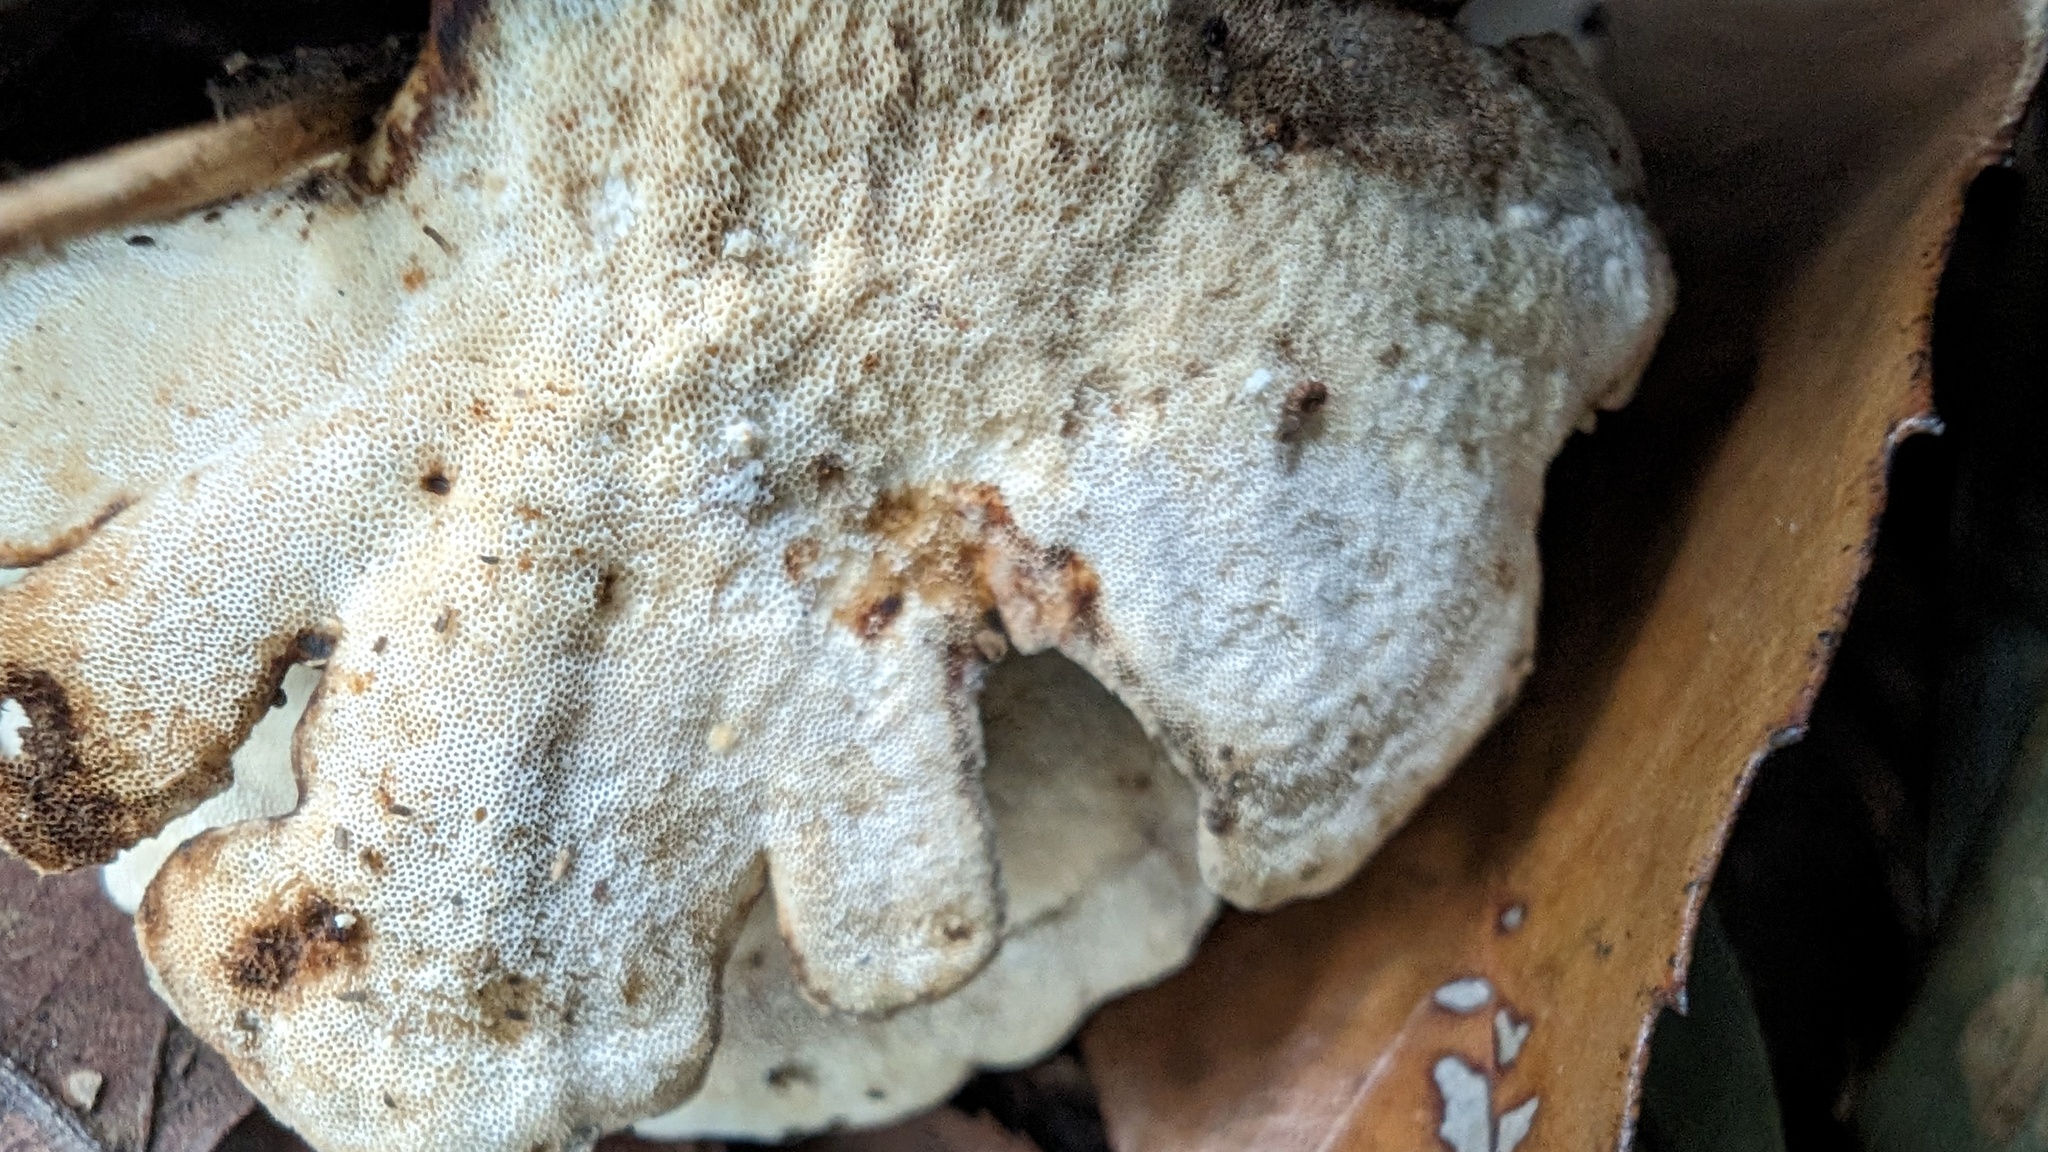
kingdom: Fungi
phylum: Basidiomycota
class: Agaricomycetes
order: Polyporales
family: Polyporaceae
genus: Trametes
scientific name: Trametes vernicipes
